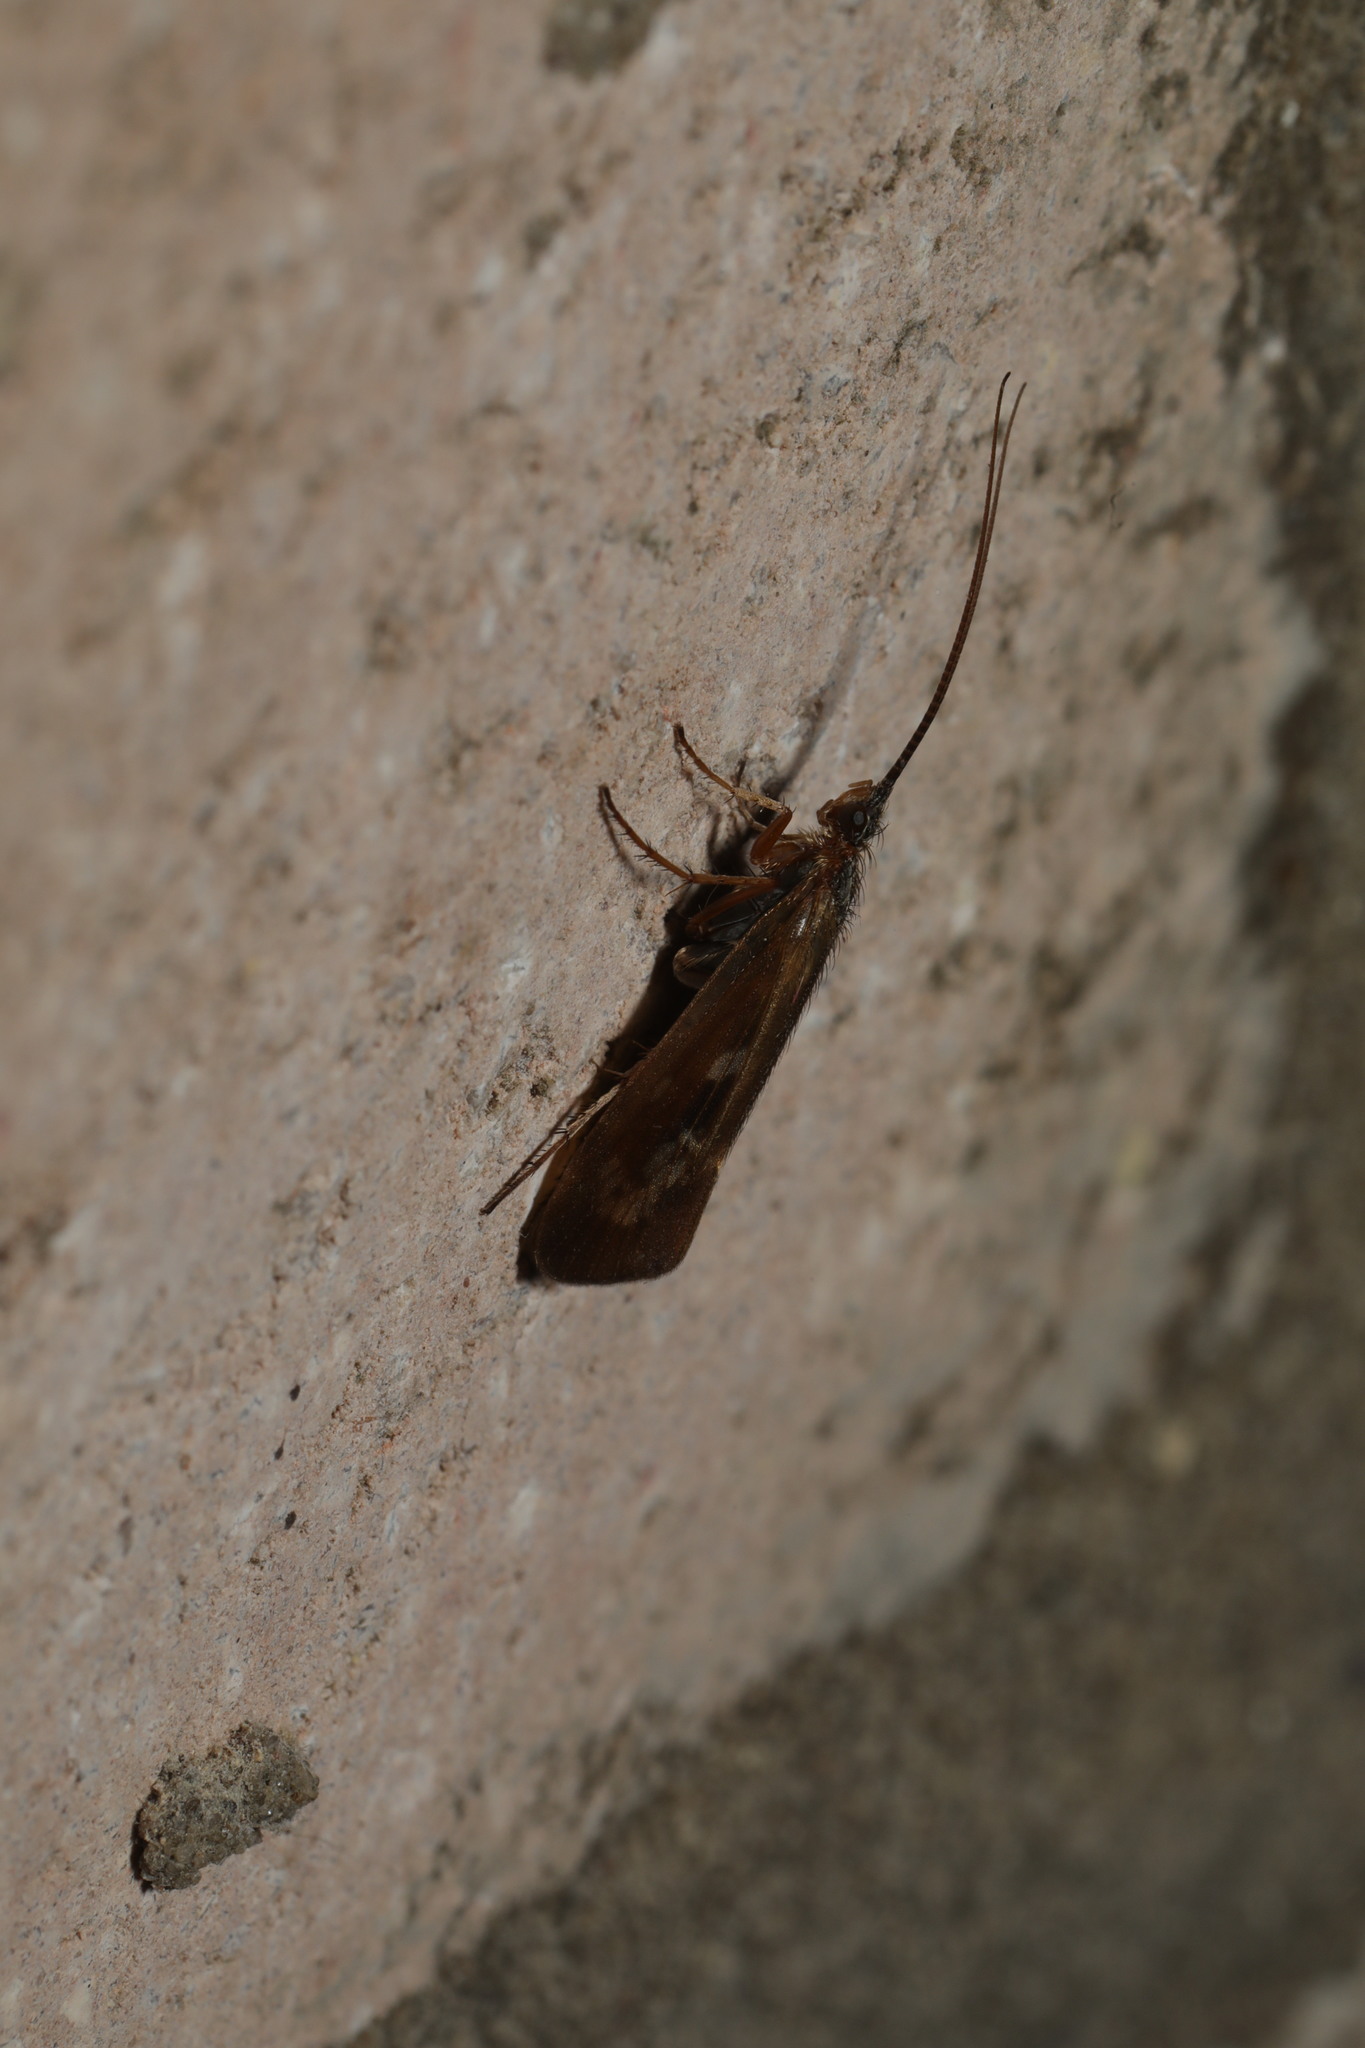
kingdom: Animalia
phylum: Arthropoda
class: Insecta
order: Trichoptera
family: Limnephilidae
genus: Limnephilus
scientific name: Limnephilus auricula
